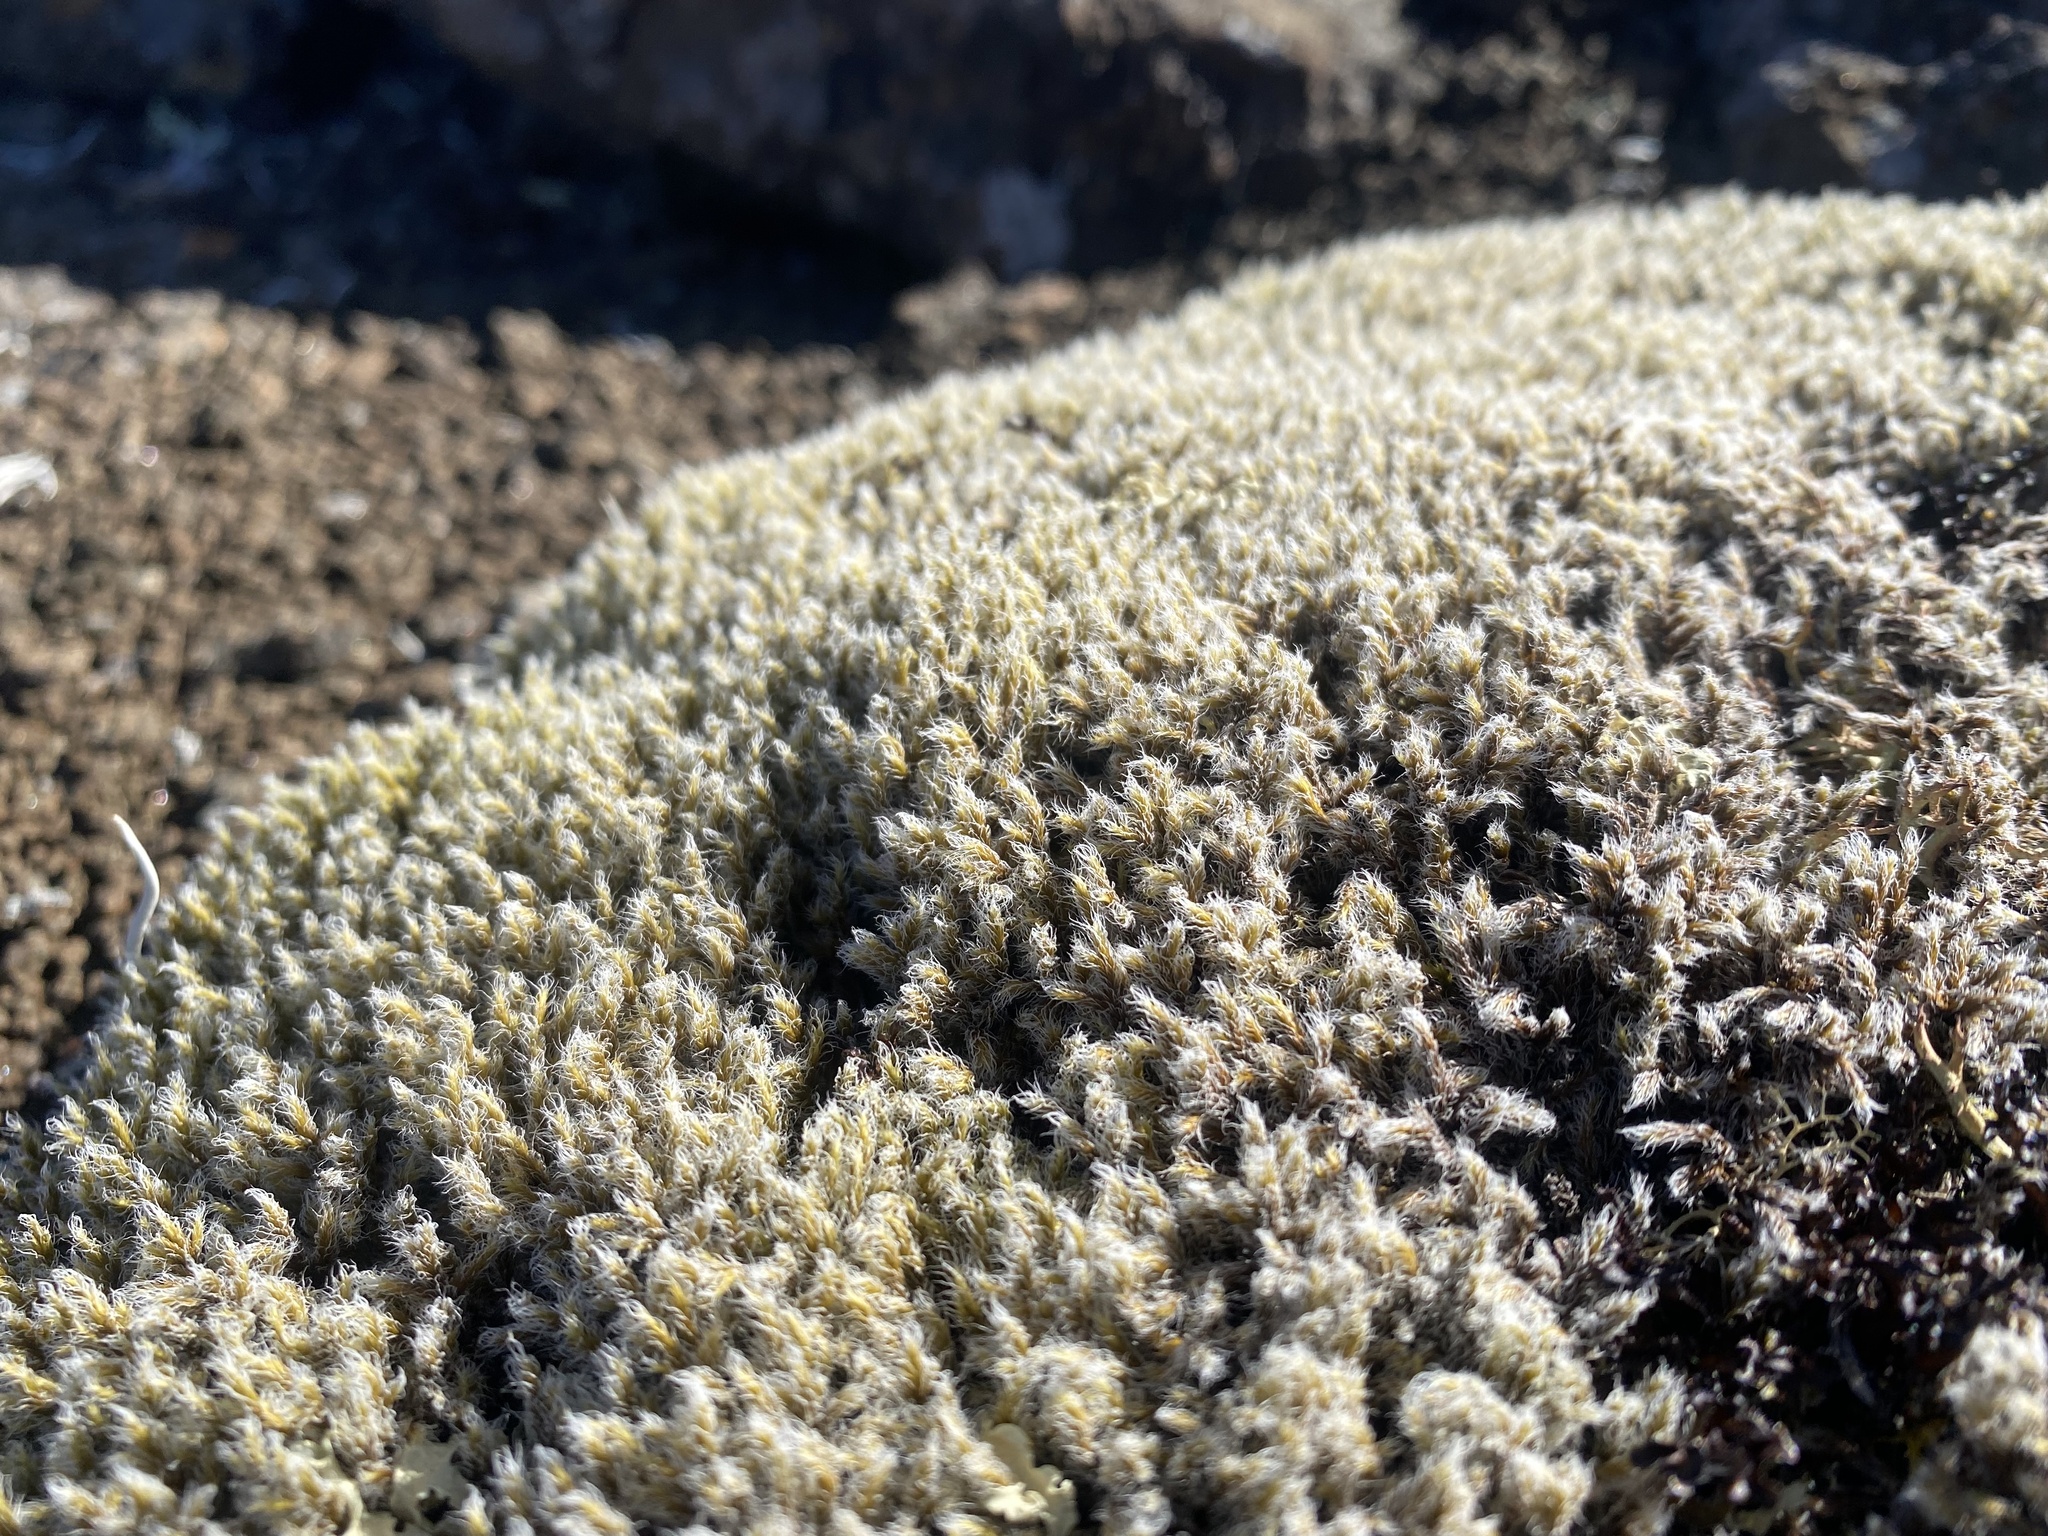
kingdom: Plantae
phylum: Bryophyta
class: Bryopsida
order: Grimmiales
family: Grimmiaceae
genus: Racomitrium
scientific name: Racomitrium lanuginosum
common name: Hoary rock moss
